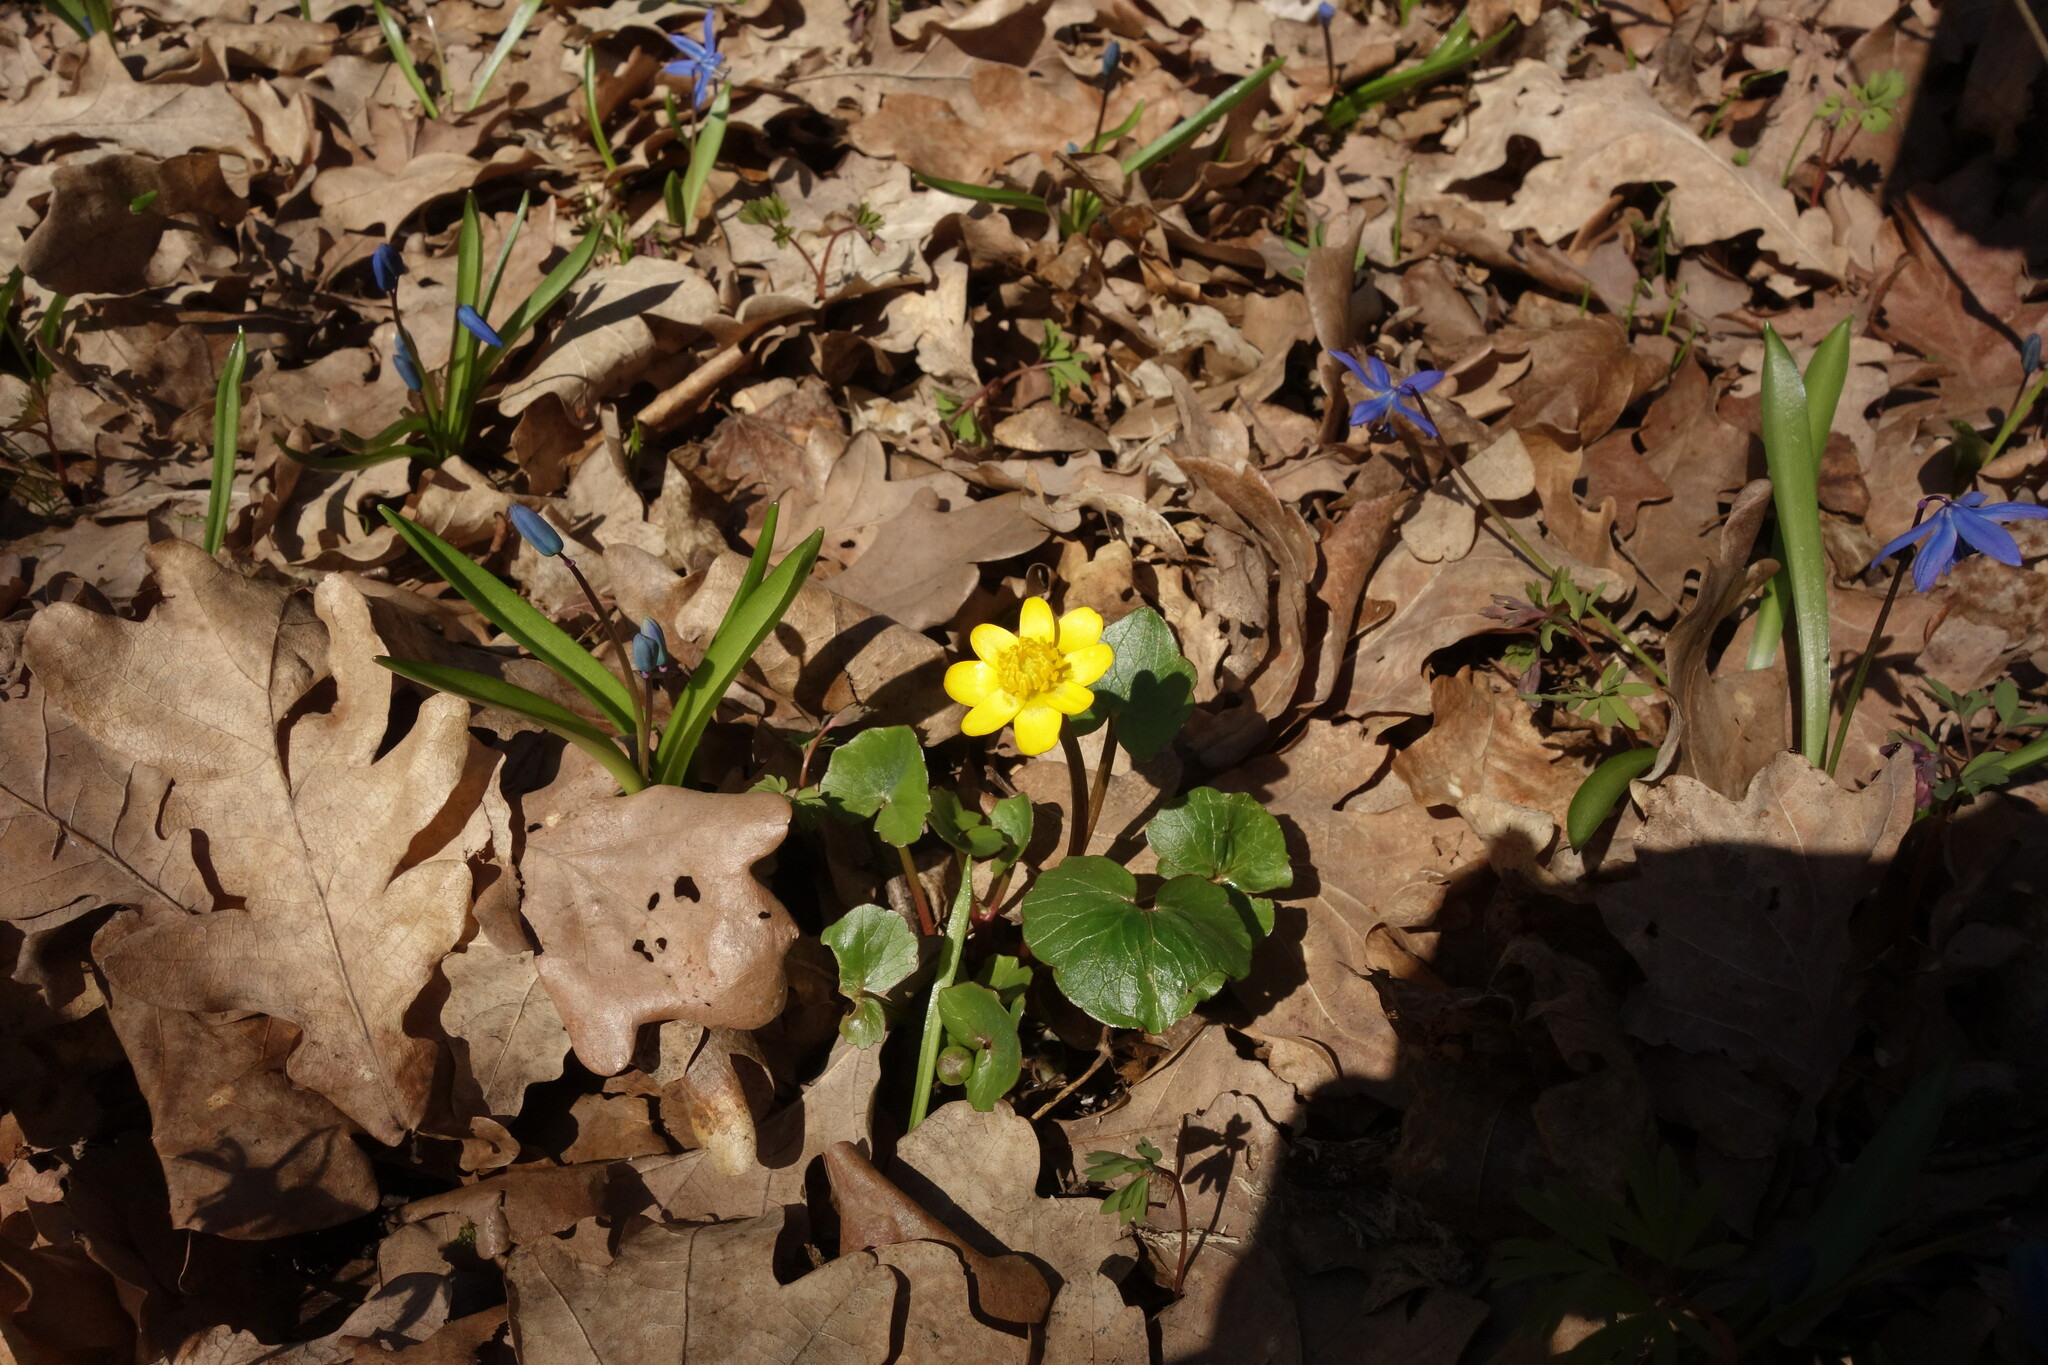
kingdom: Plantae
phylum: Tracheophyta
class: Magnoliopsida
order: Ranunculales
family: Ranunculaceae
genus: Ficaria
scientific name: Ficaria verna
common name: Lesser celandine
